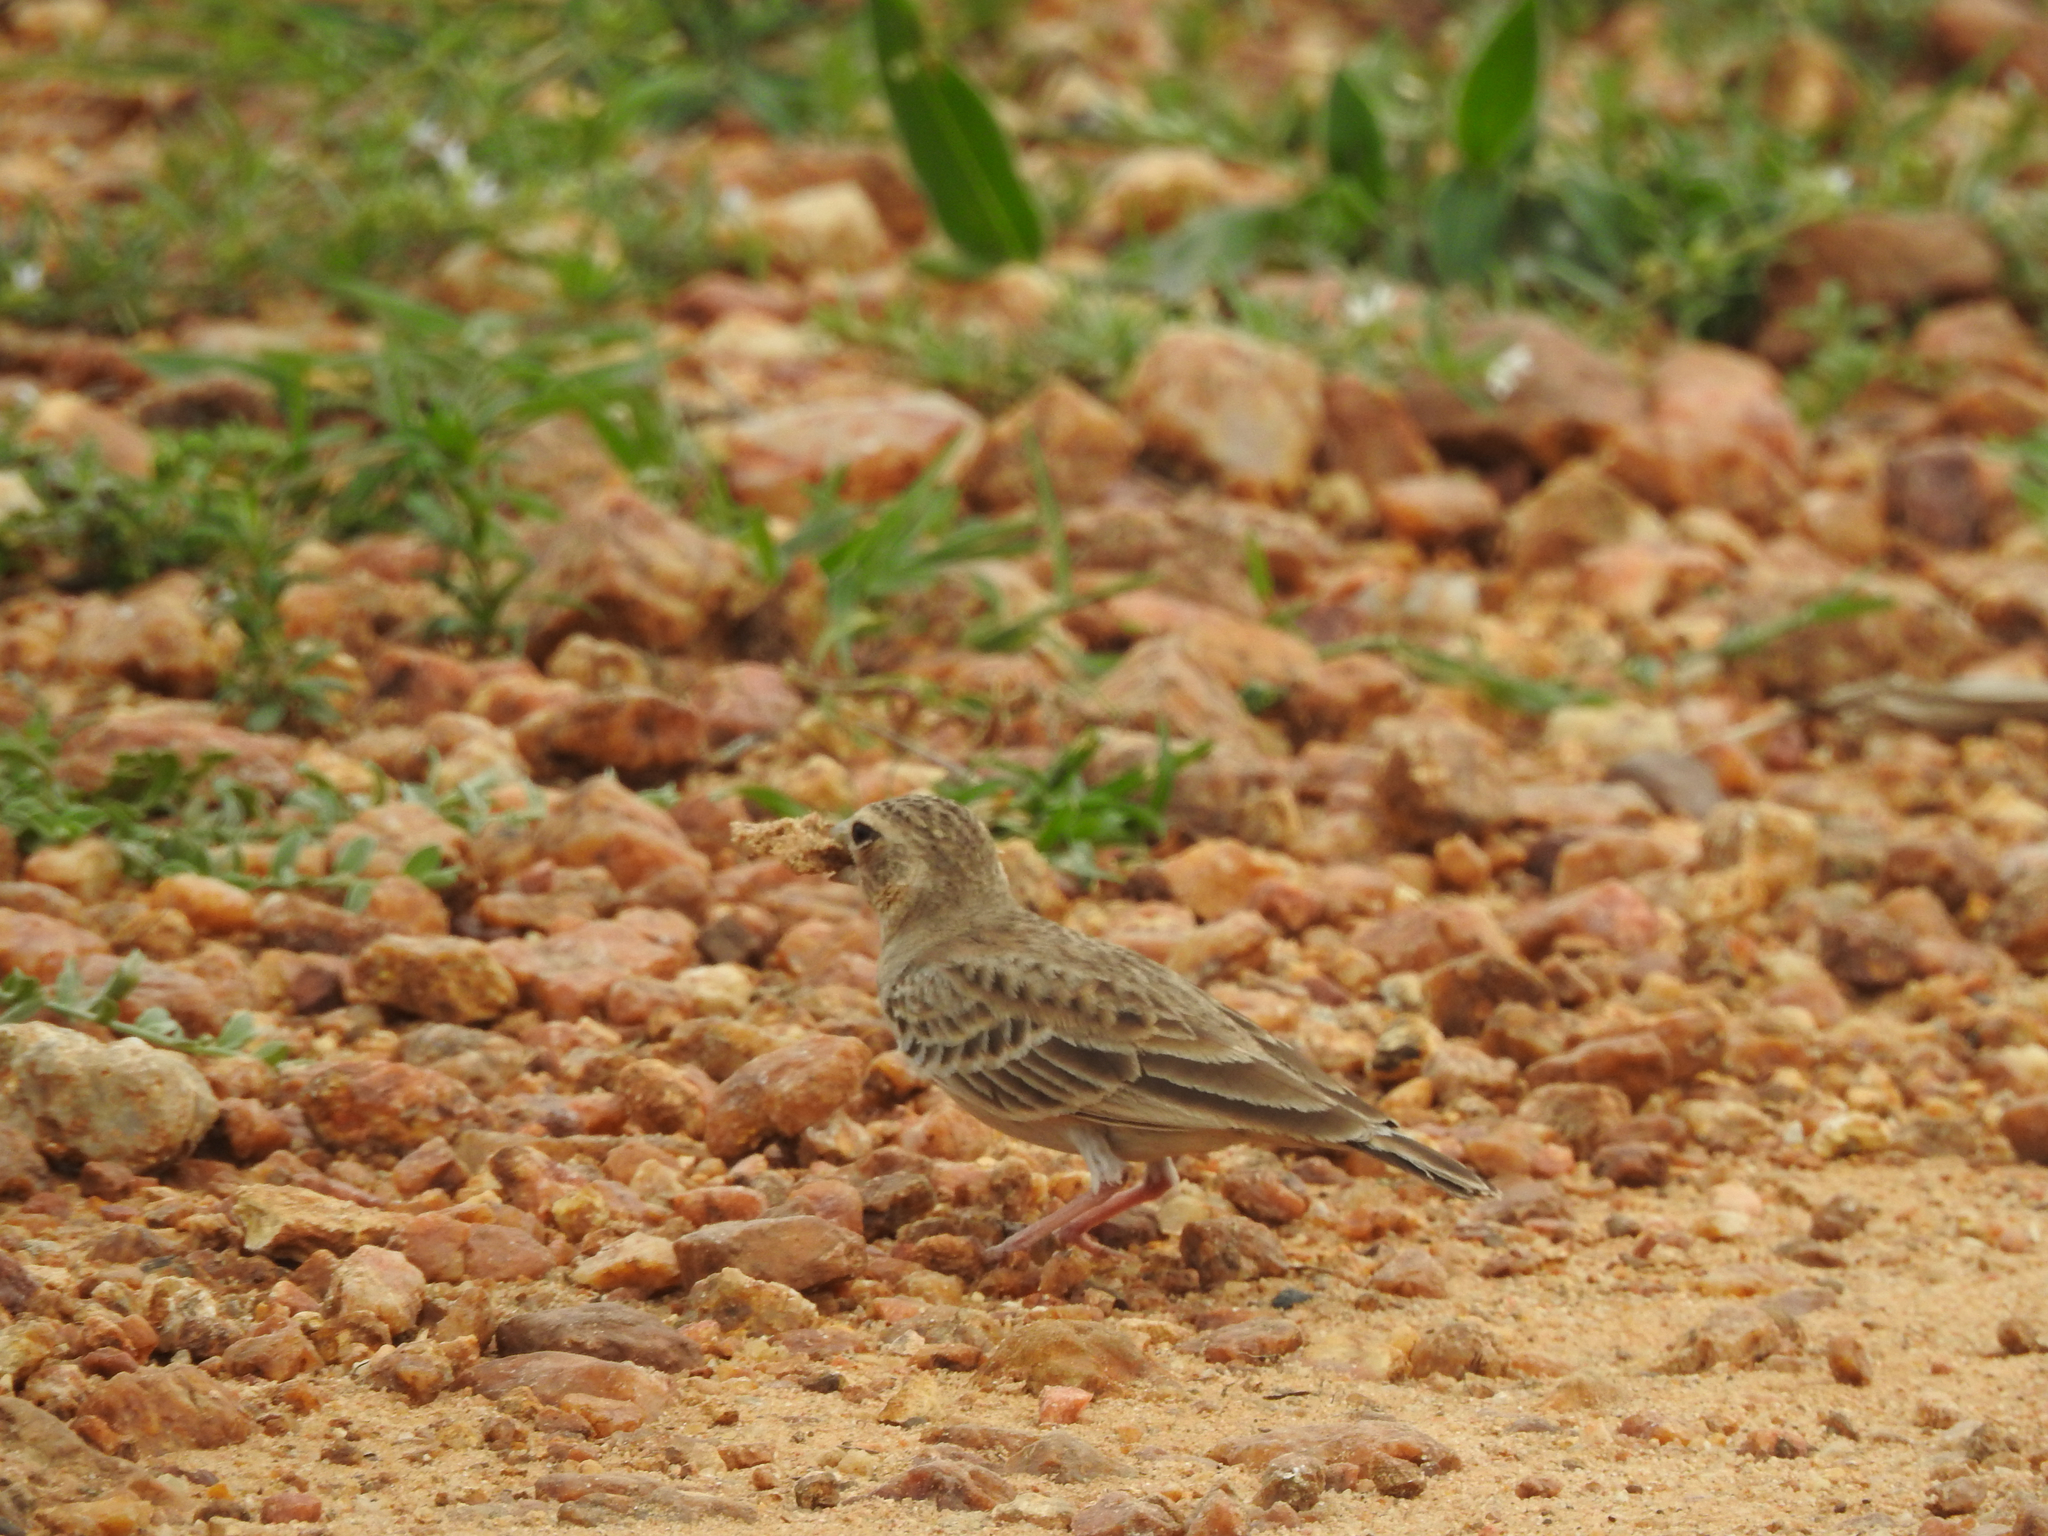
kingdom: Animalia
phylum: Chordata
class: Aves
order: Passeriformes
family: Alaudidae
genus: Eremopterix
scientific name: Eremopterix griseus
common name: Ashy-crowned sparrow-lark
